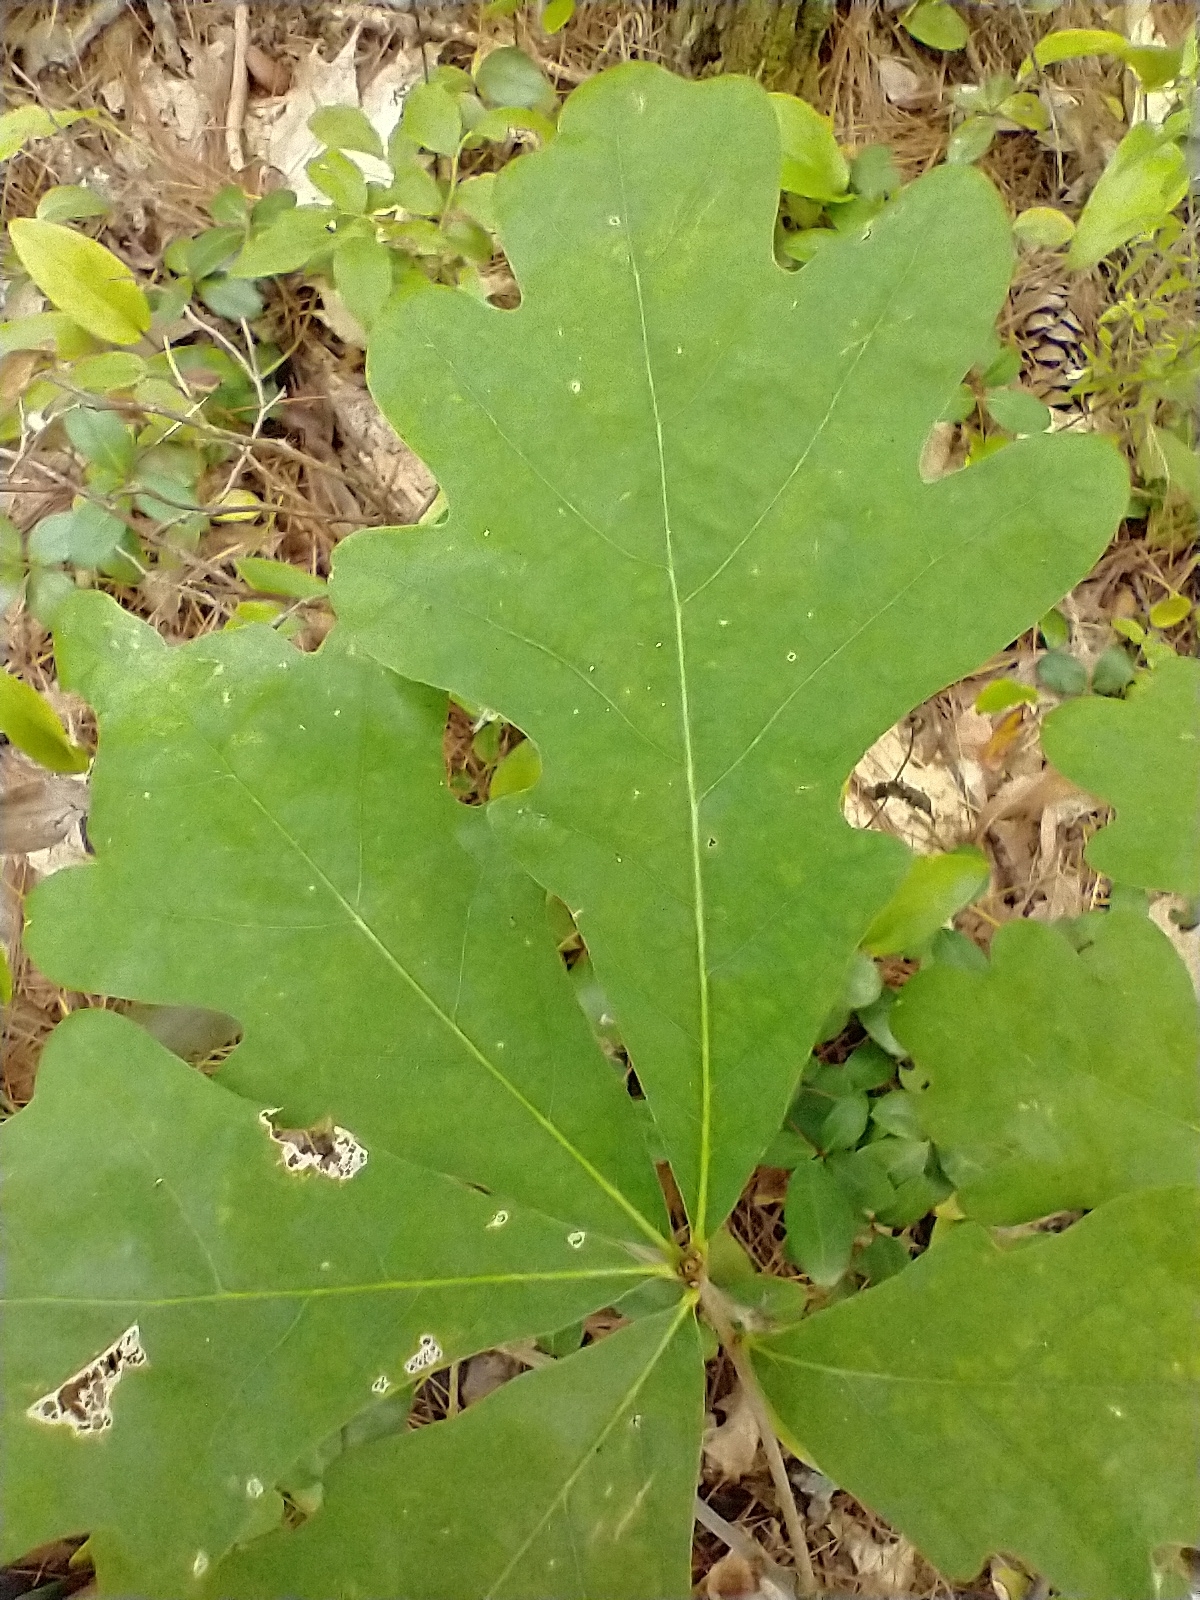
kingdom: Plantae
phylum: Tracheophyta
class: Magnoliopsida
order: Fagales
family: Fagaceae
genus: Quercus
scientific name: Quercus alba
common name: White oak
